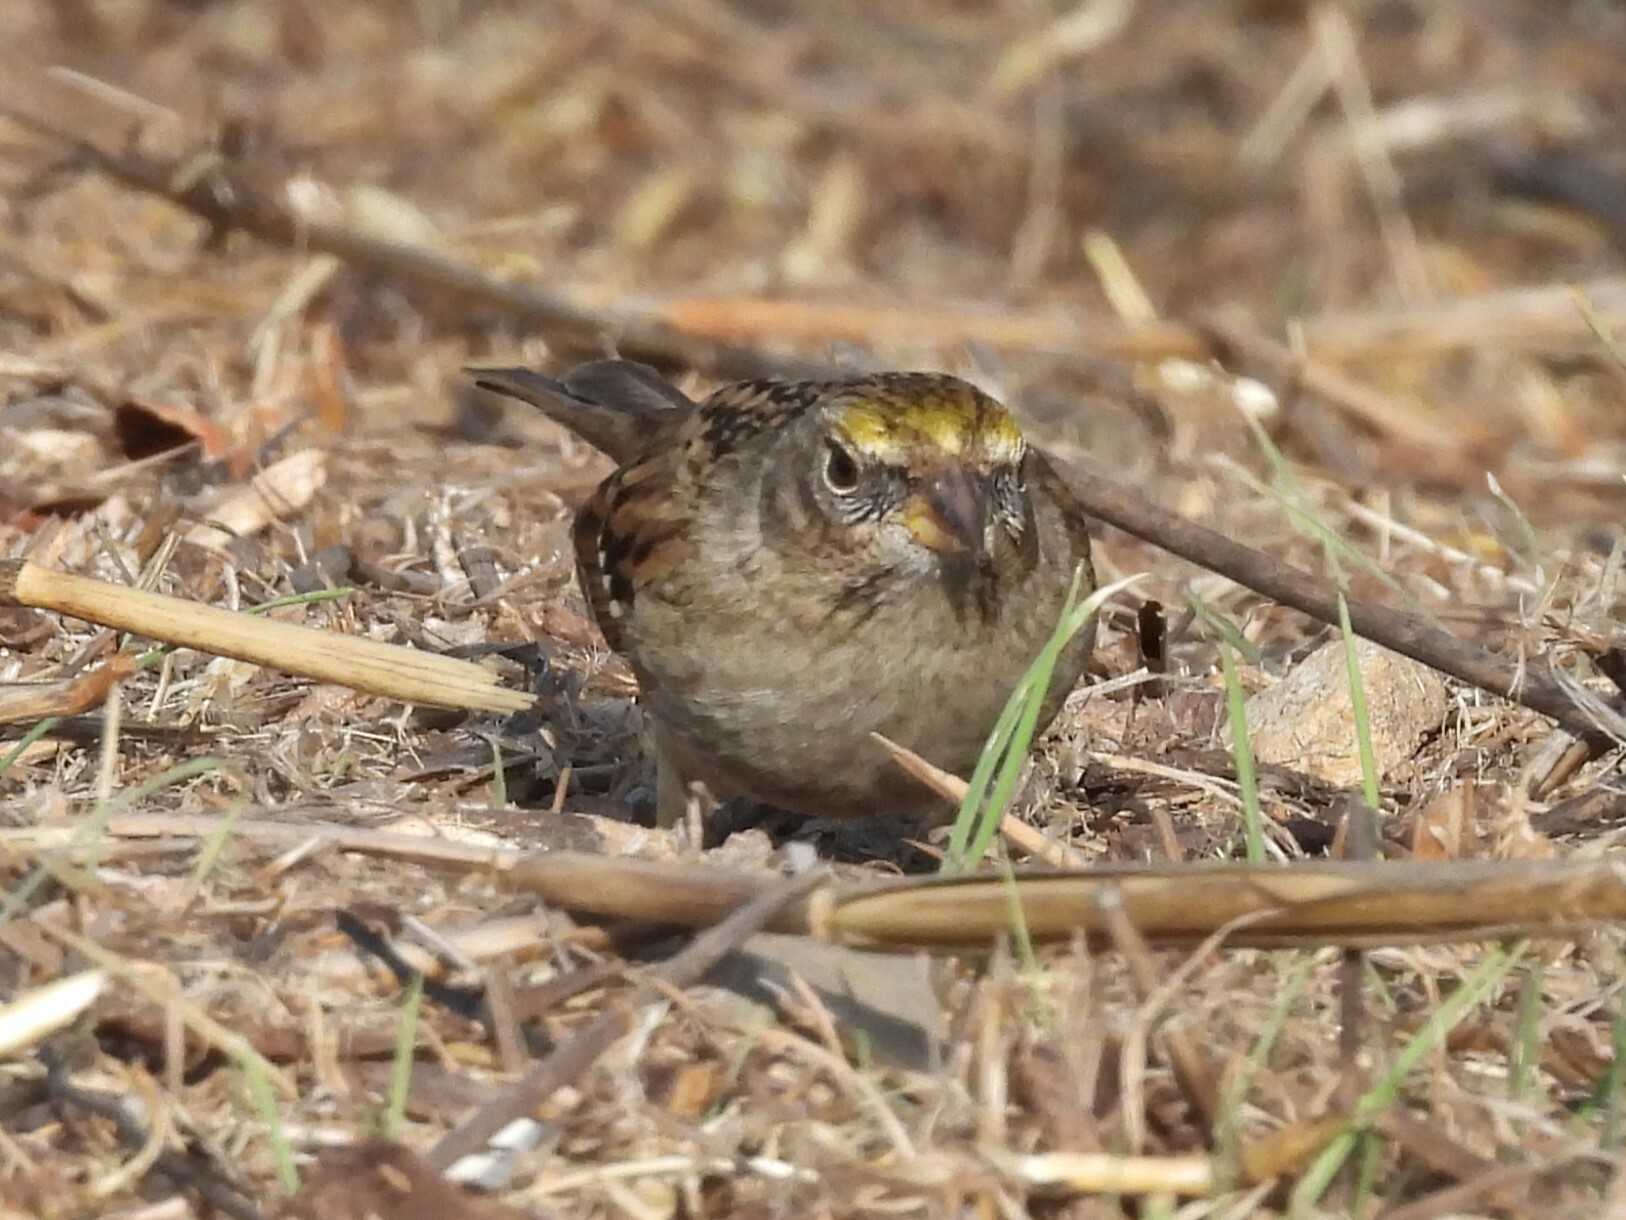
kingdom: Animalia
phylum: Chordata
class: Aves
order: Passeriformes
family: Passerellidae
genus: Zonotrichia
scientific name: Zonotrichia atricapilla
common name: Golden-crowned sparrow
